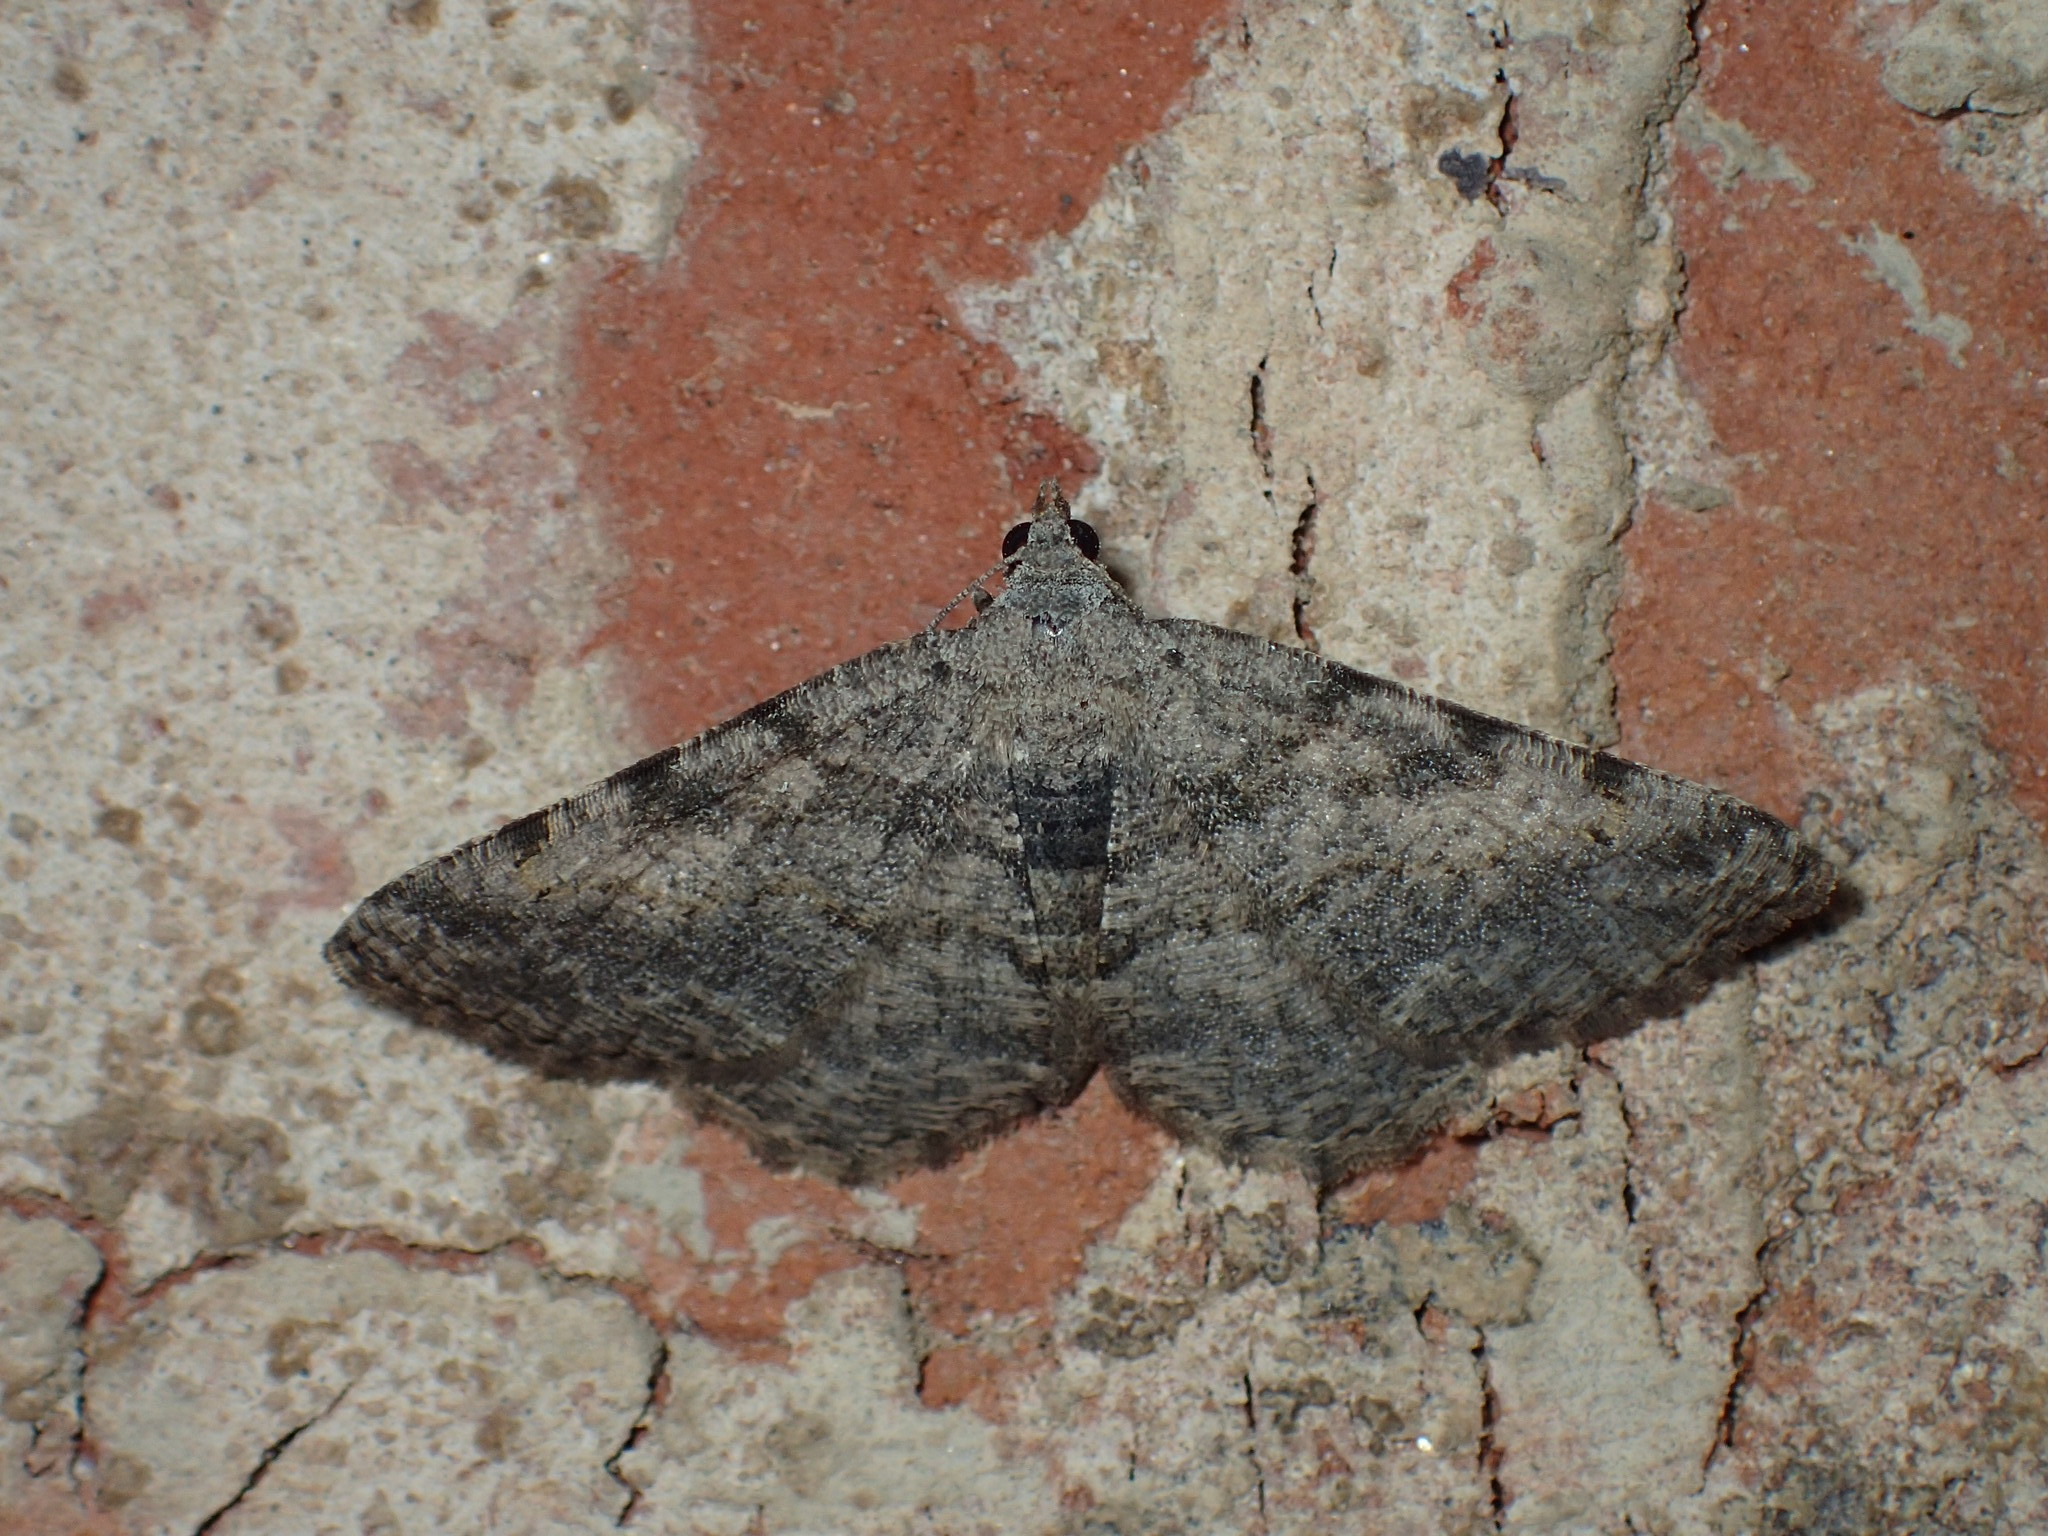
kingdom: Animalia
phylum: Arthropoda
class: Insecta
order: Lepidoptera
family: Geometridae
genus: Digrammia
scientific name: Digrammia gnophosaria
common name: Hollow-spotted angle
